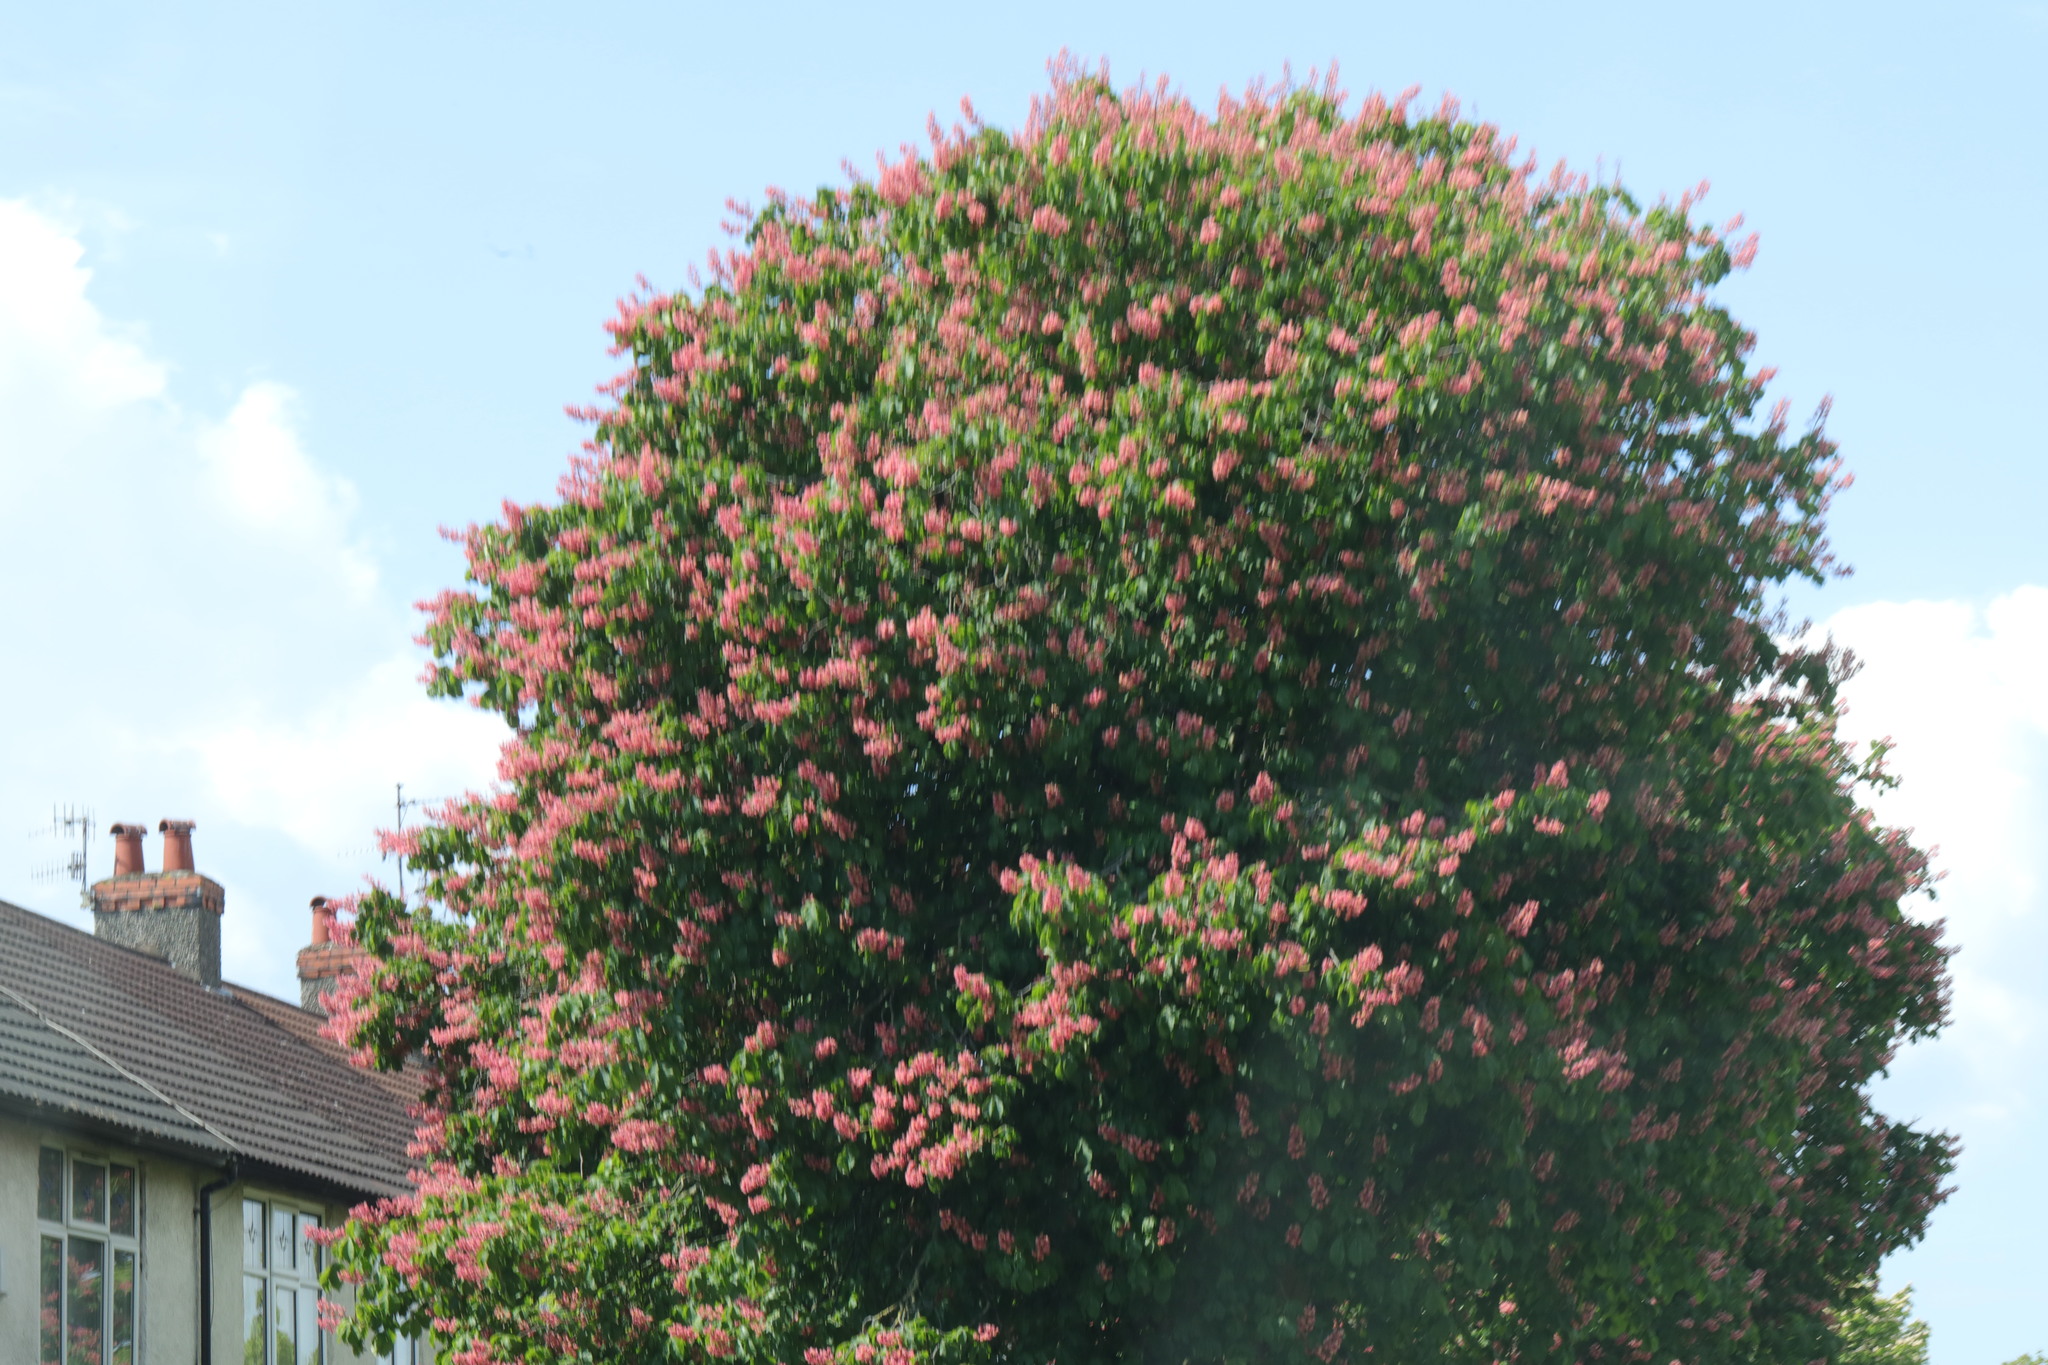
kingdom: Plantae
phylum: Tracheophyta
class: Magnoliopsida
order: Sapindales
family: Sapindaceae
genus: Aesculus
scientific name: Aesculus carnea
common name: Red horse-chestnut
